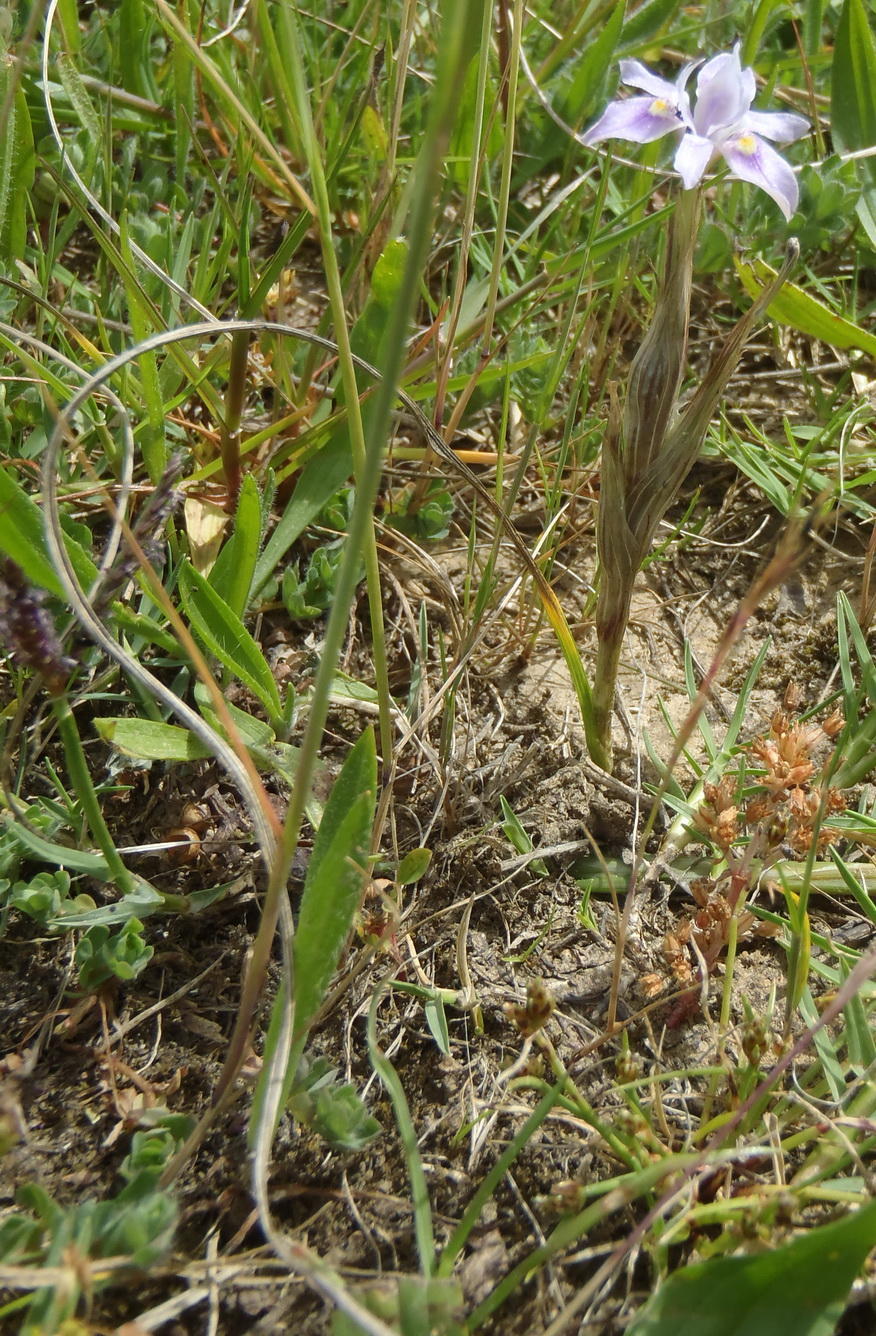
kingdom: Plantae
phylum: Tracheophyta
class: Liliopsida
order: Asparagales
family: Iridaceae
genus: Moraea
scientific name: Moraea setifolia
